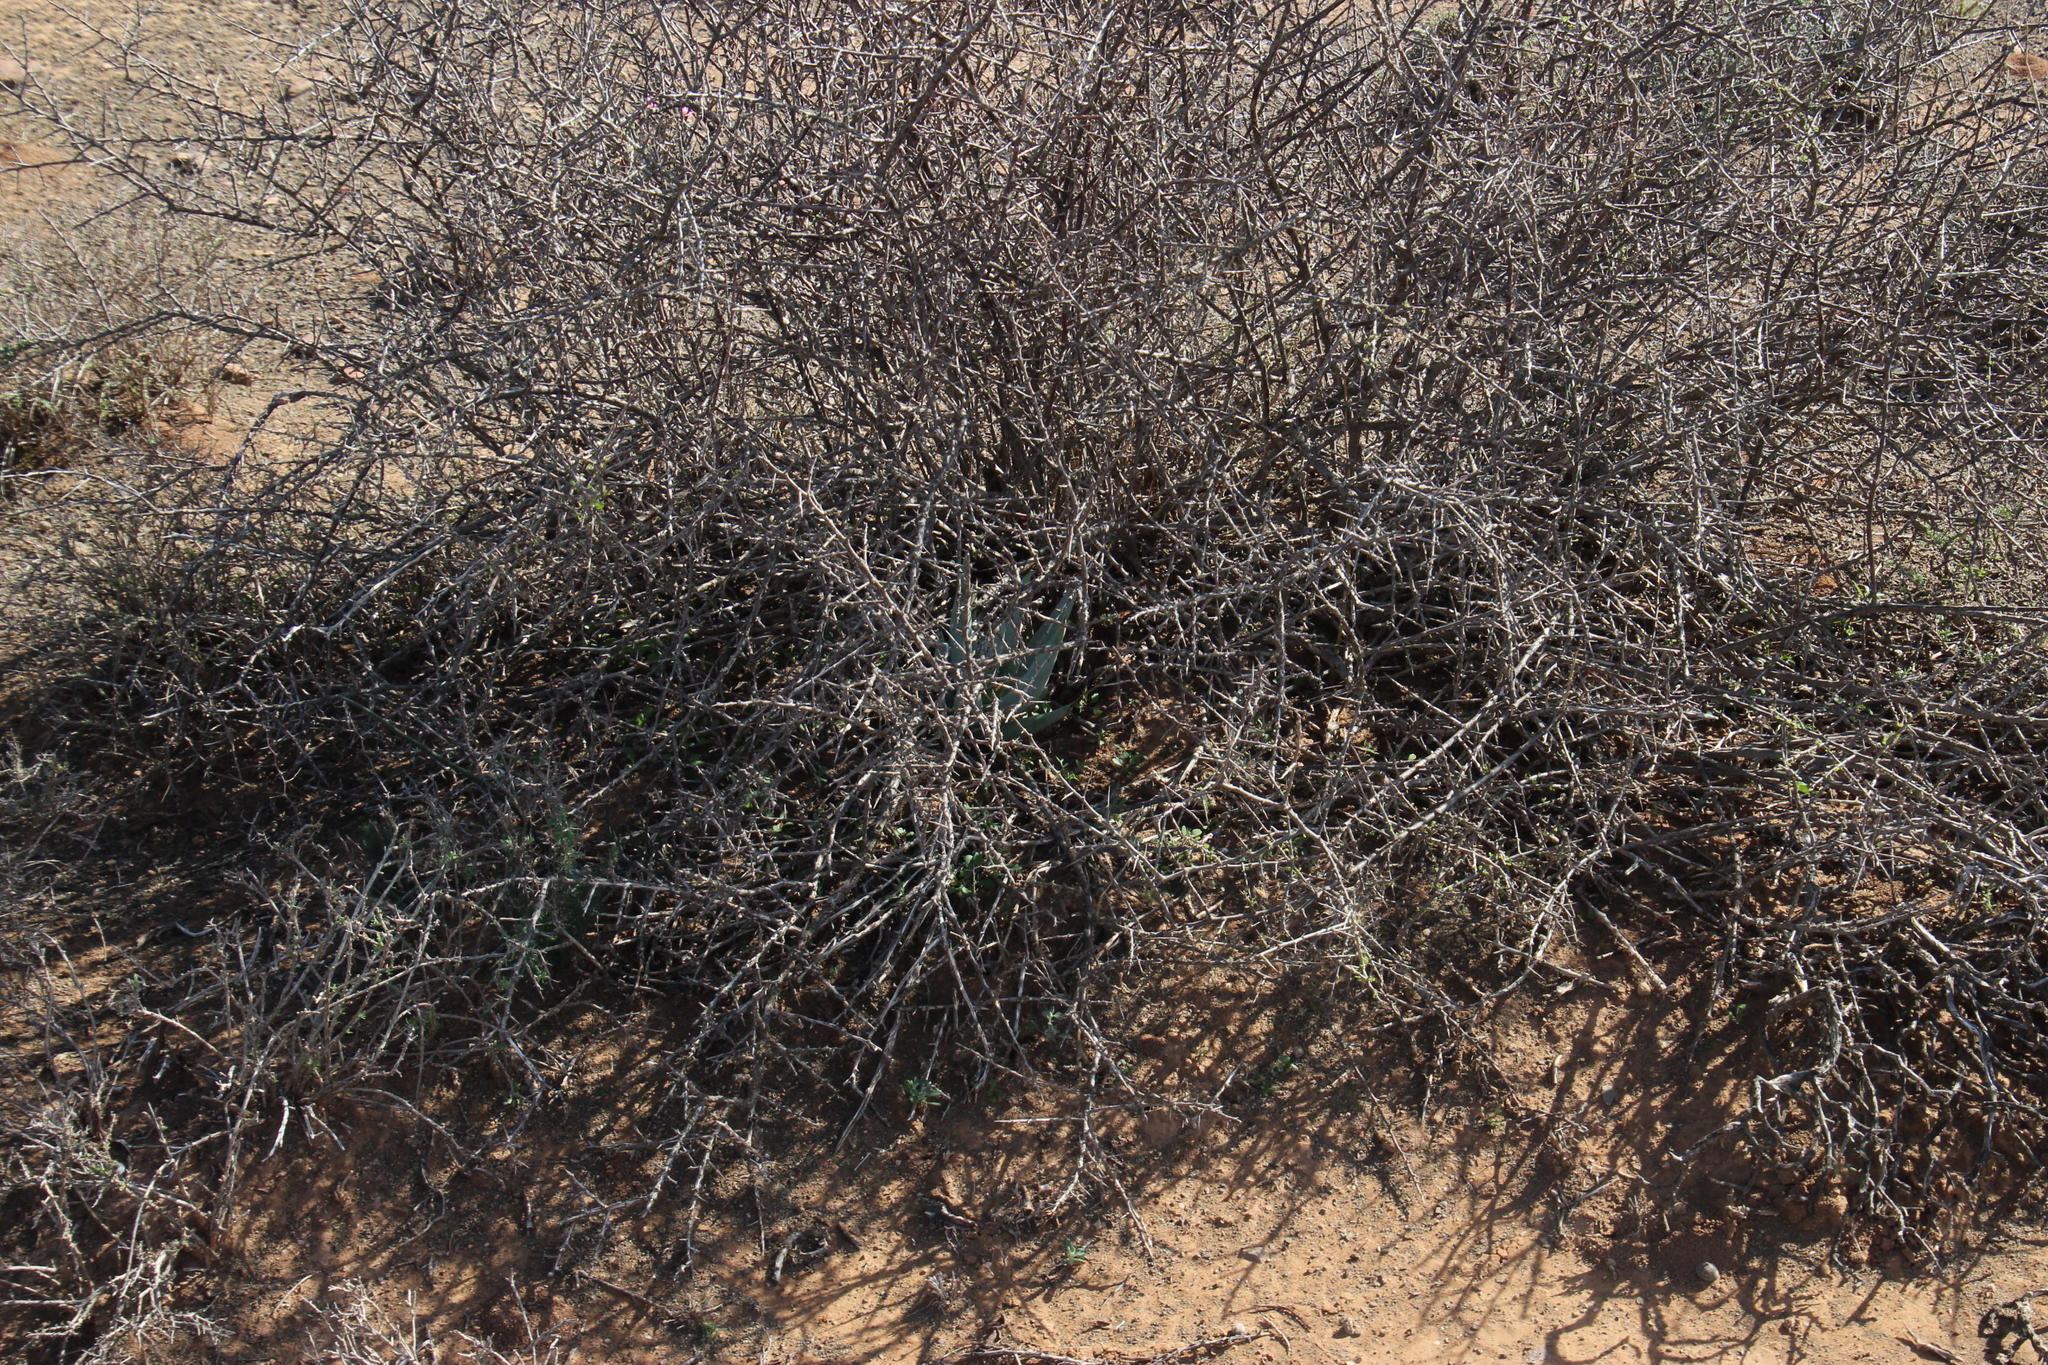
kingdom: Plantae
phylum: Tracheophyta
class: Liliopsida
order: Asparagales
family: Asphodelaceae
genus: Aloe
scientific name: Aloe claviflora
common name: Cannon aloe
